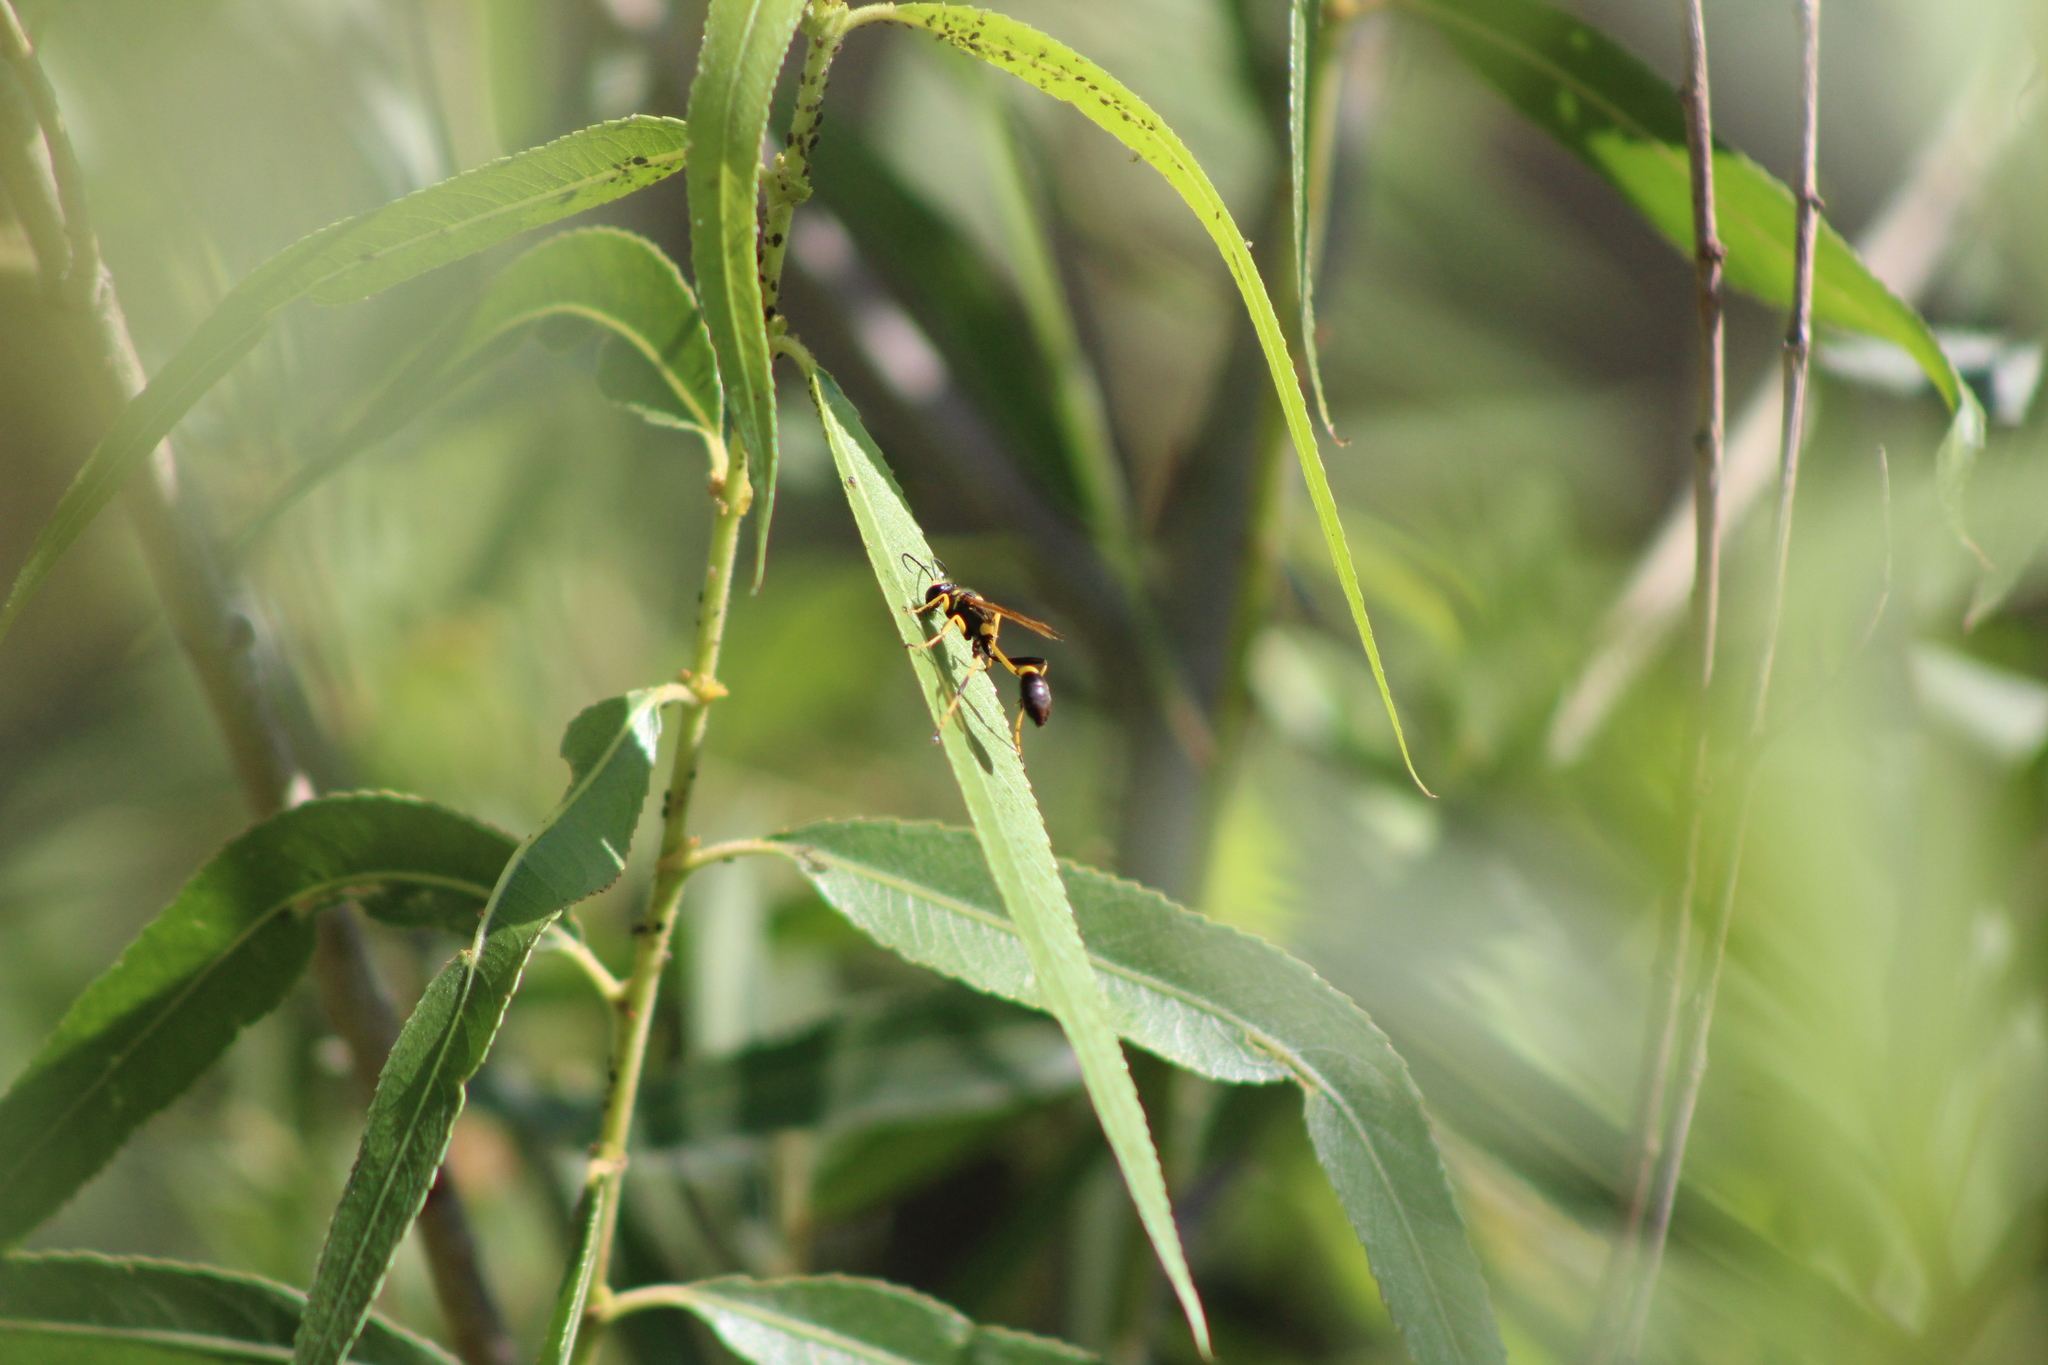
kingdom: Animalia
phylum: Arthropoda
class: Insecta
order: Hymenoptera
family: Sphecidae
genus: Sceliphron
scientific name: Sceliphron caementarium
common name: Mud dauber
